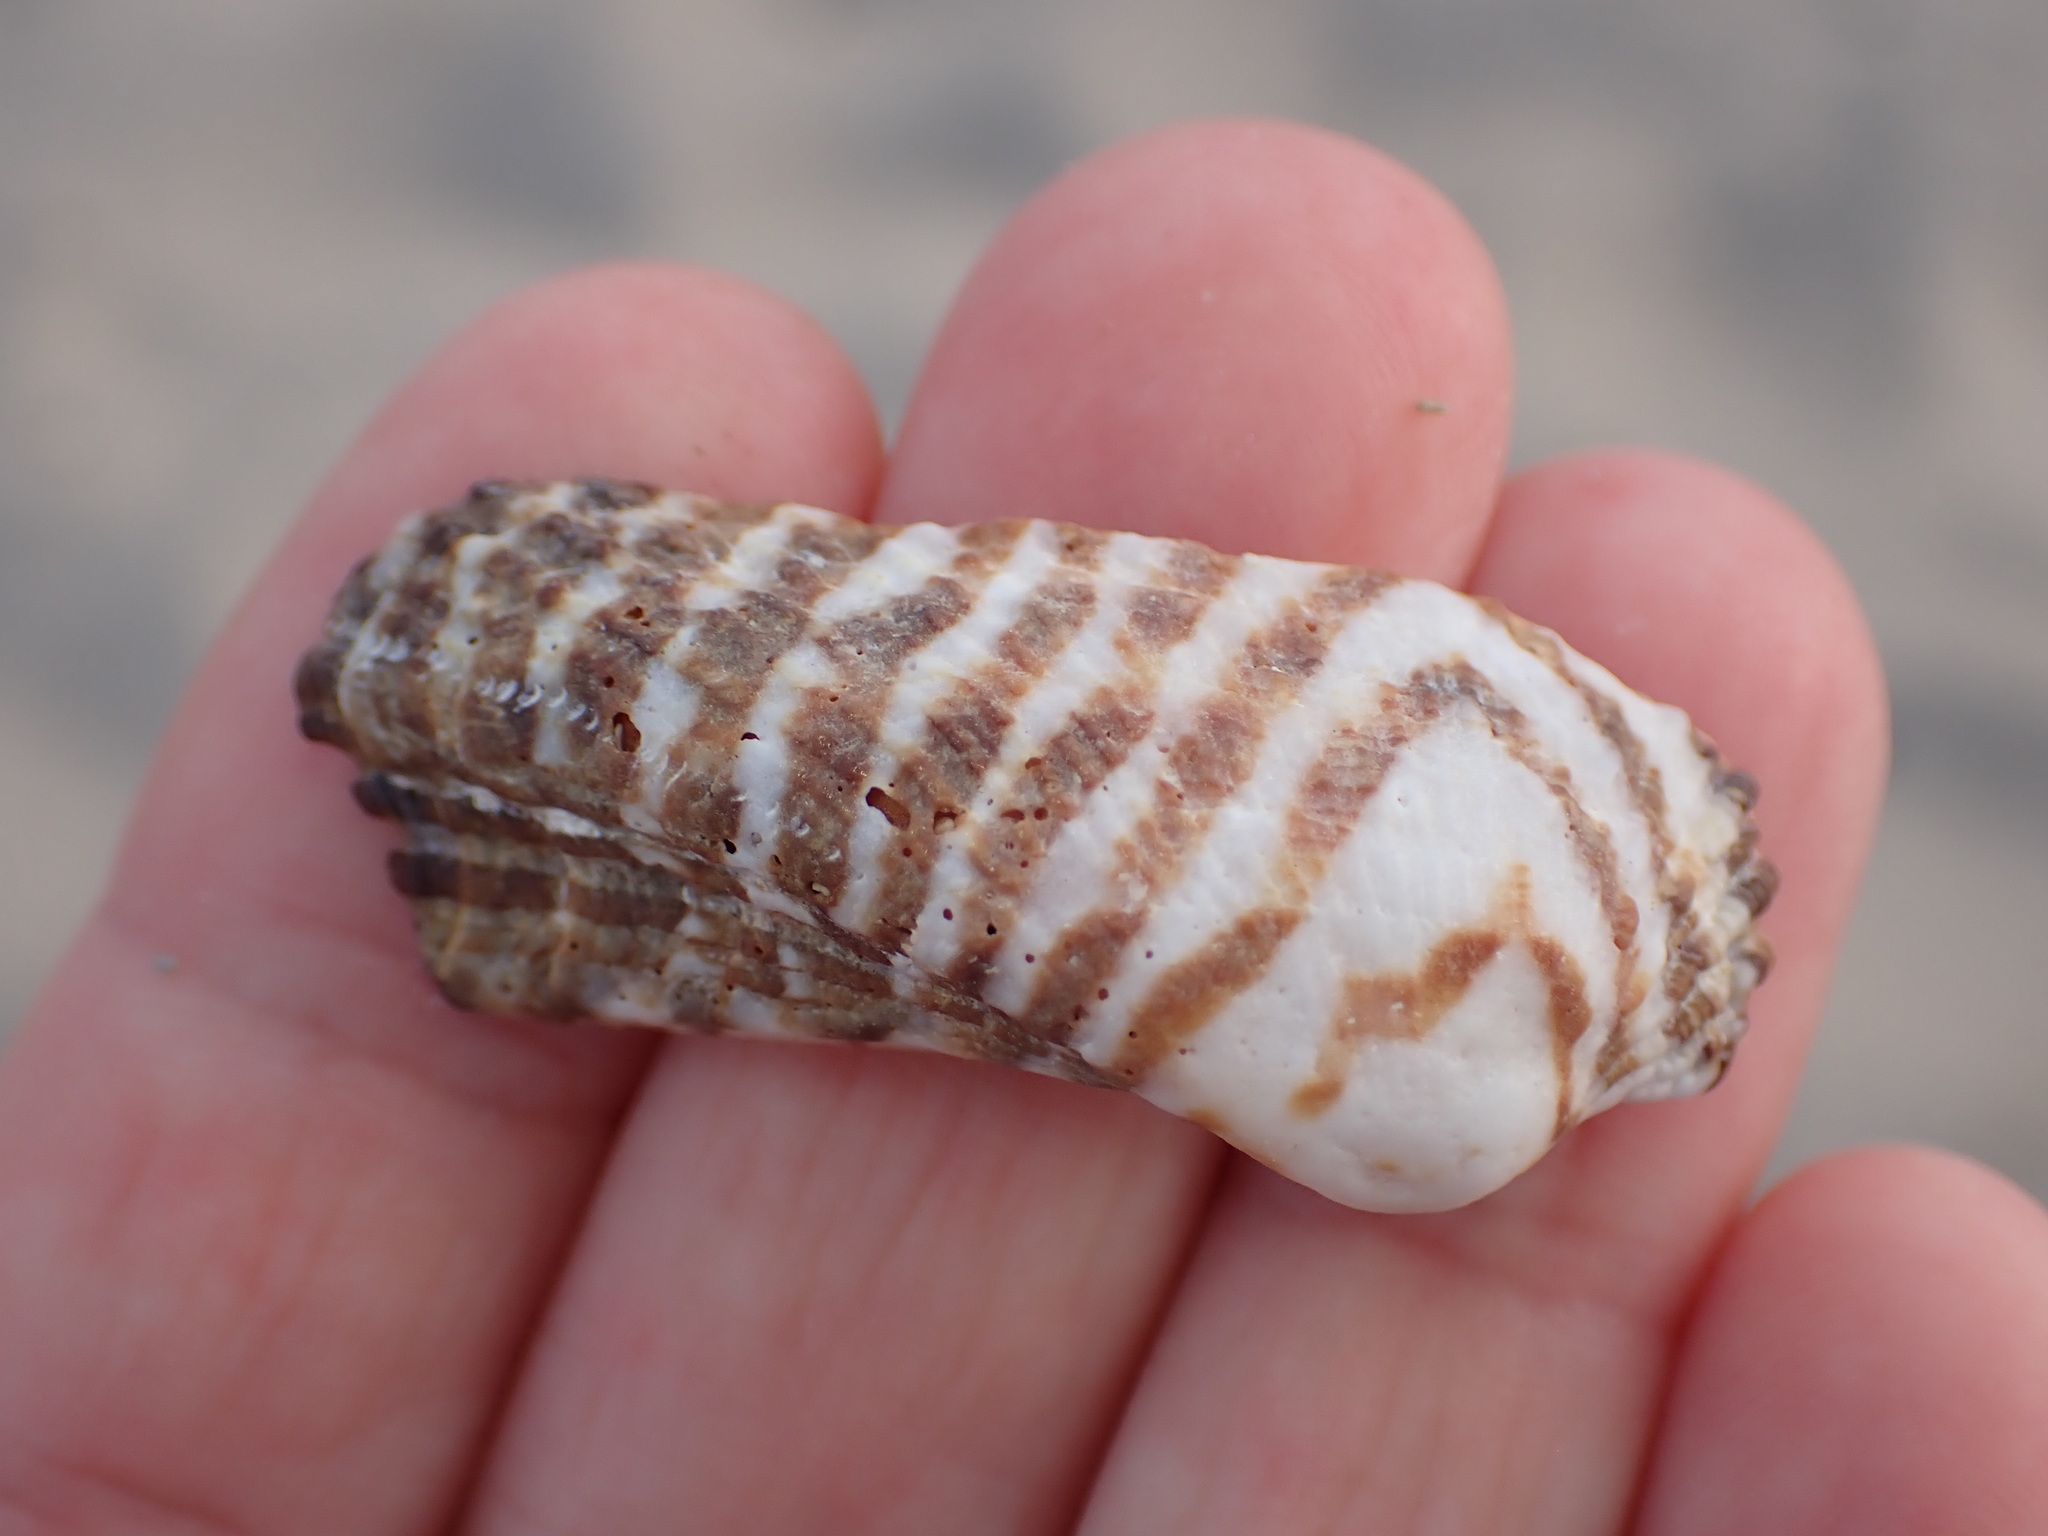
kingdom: Animalia
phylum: Mollusca
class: Bivalvia
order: Arcida
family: Arcidae
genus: Arca
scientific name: Arca noae
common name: Noah's arch
